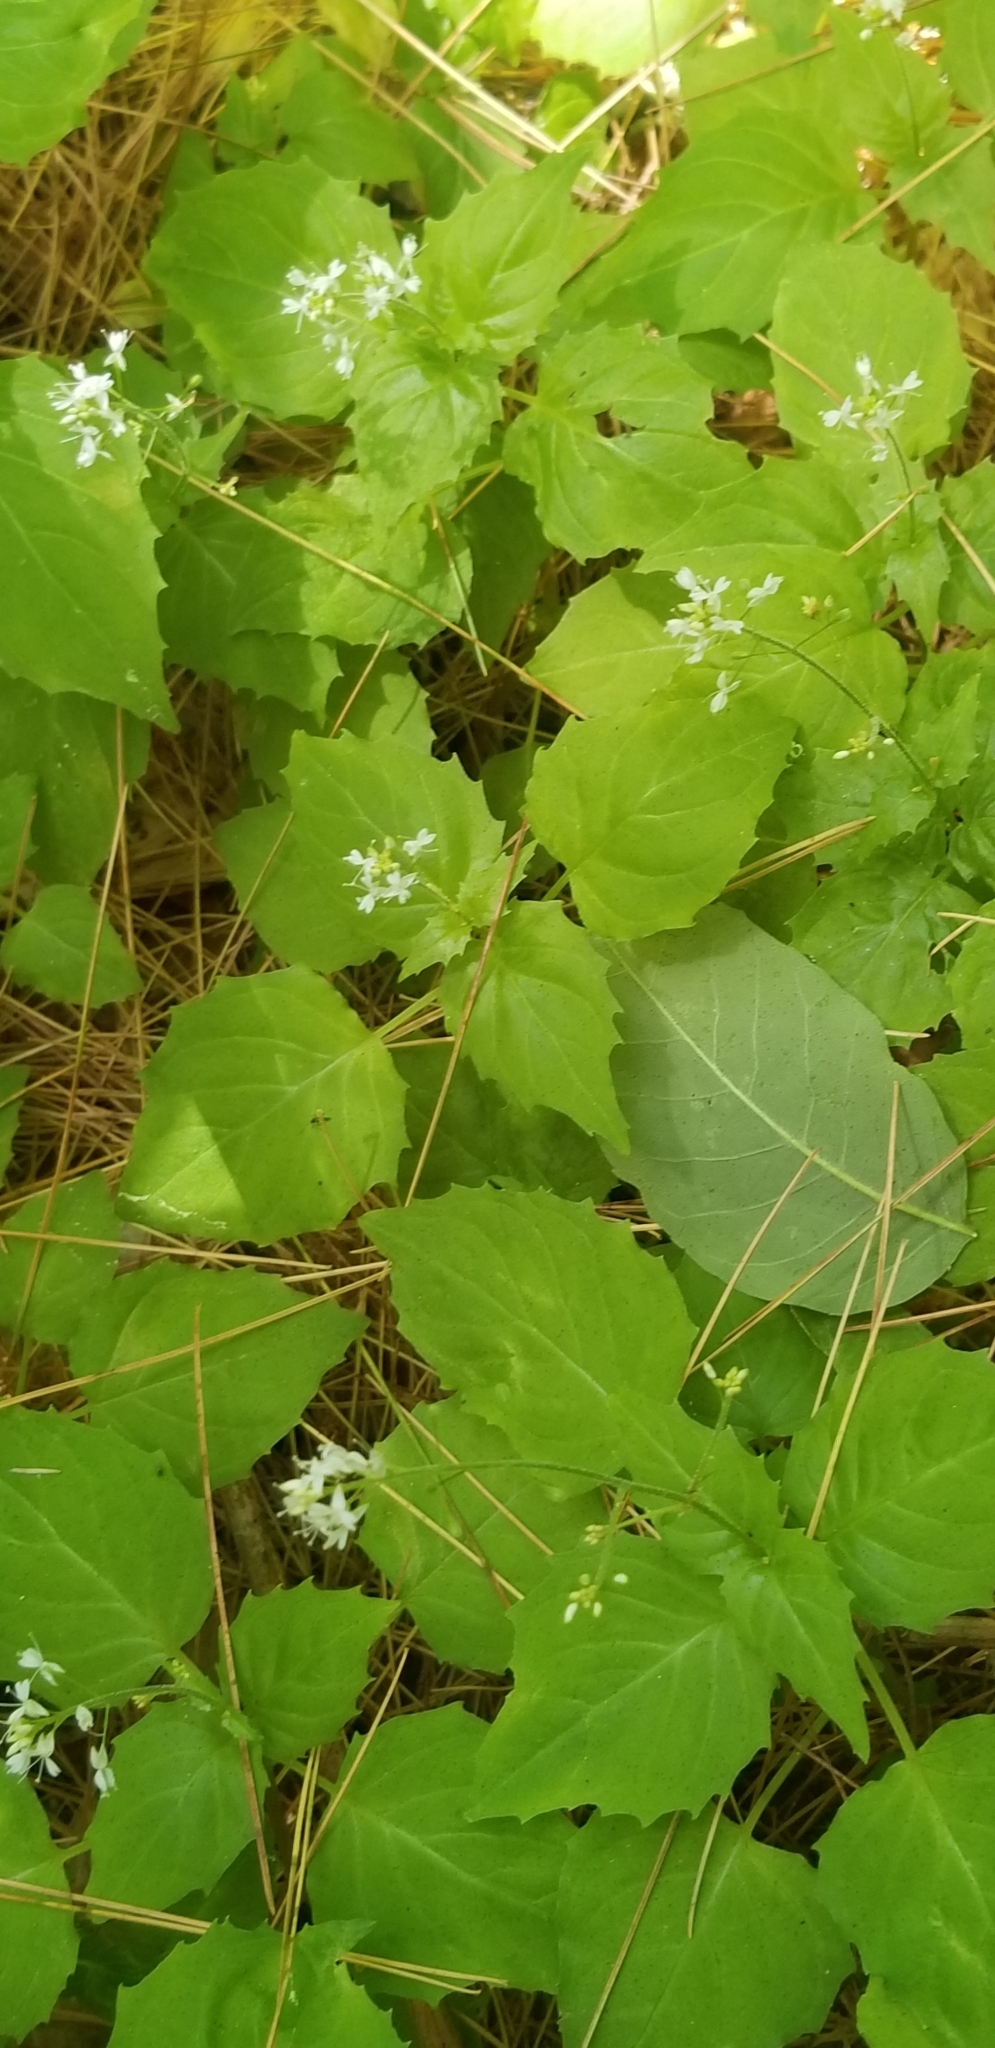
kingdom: Plantae
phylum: Tracheophyta
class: Magnoliopsida
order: Myrtales
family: Onagraceae
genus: Circaea
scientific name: Circaea canadensis
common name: Broad-leaved enchanter's nightshade
